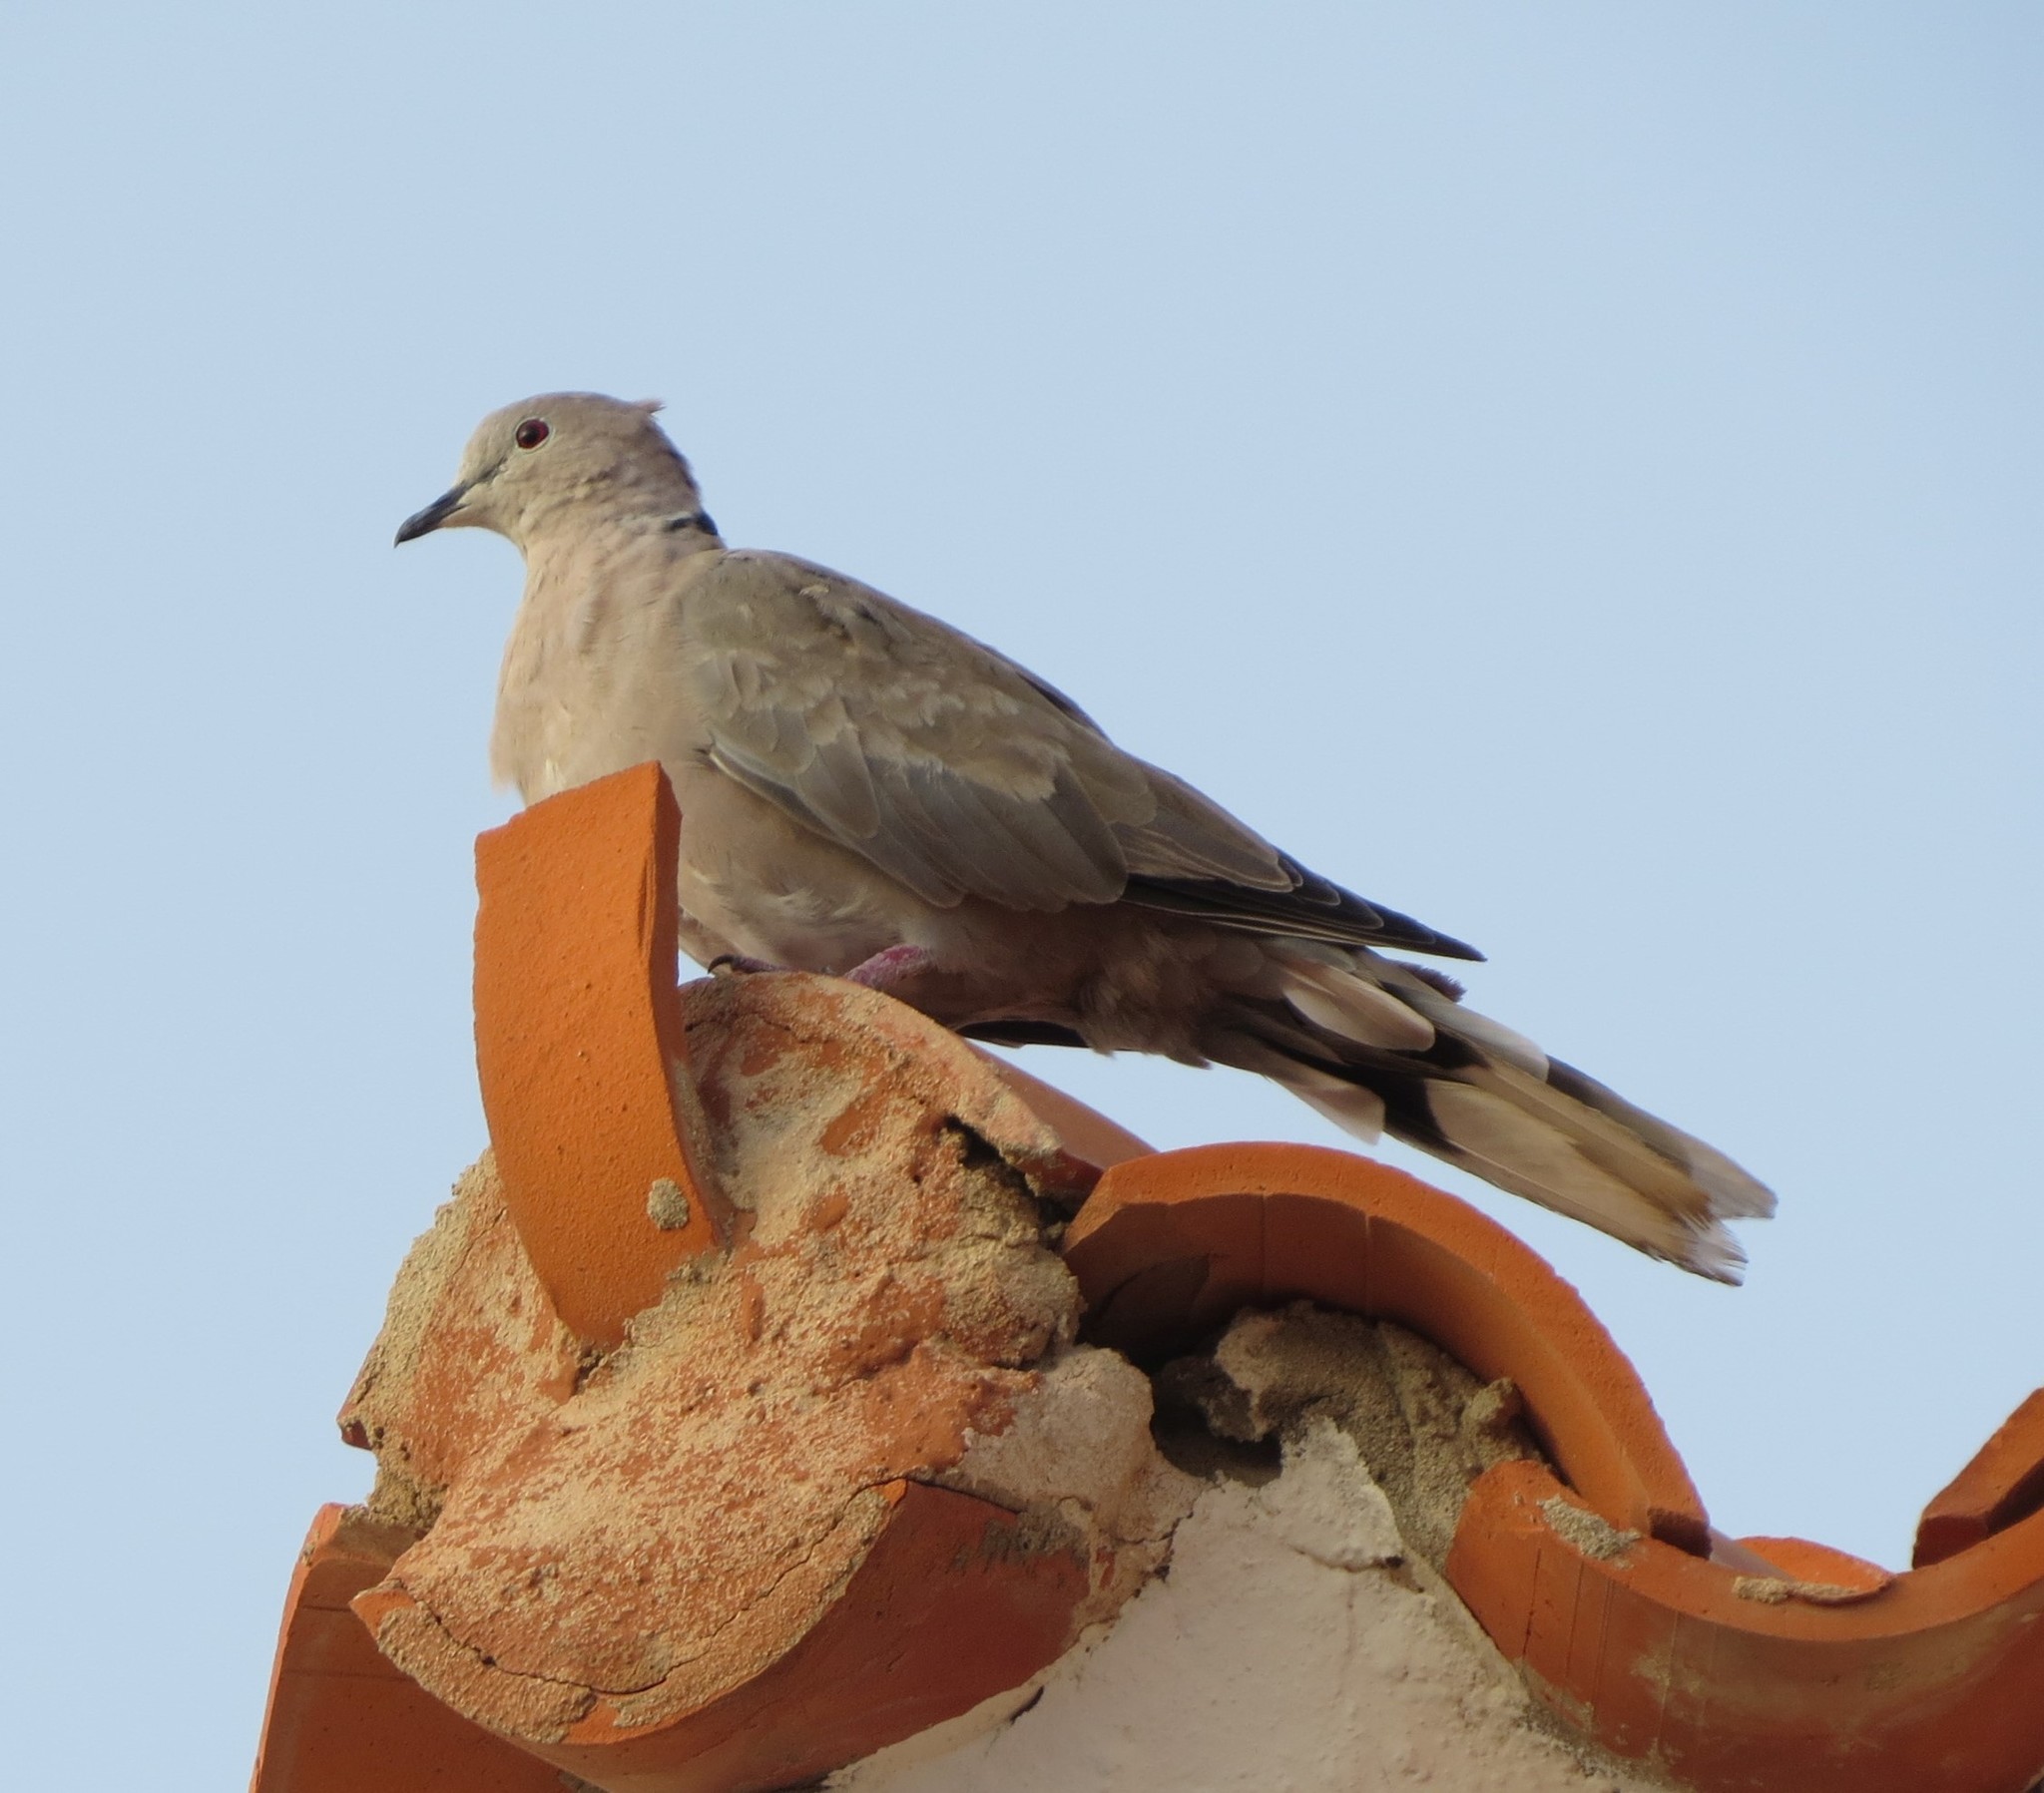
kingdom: Animalia
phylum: Chordata
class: Aves
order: Columbiformes
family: Columbidae
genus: Streptopelia
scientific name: Streptopelia decaocto
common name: Eurasian collared dove
